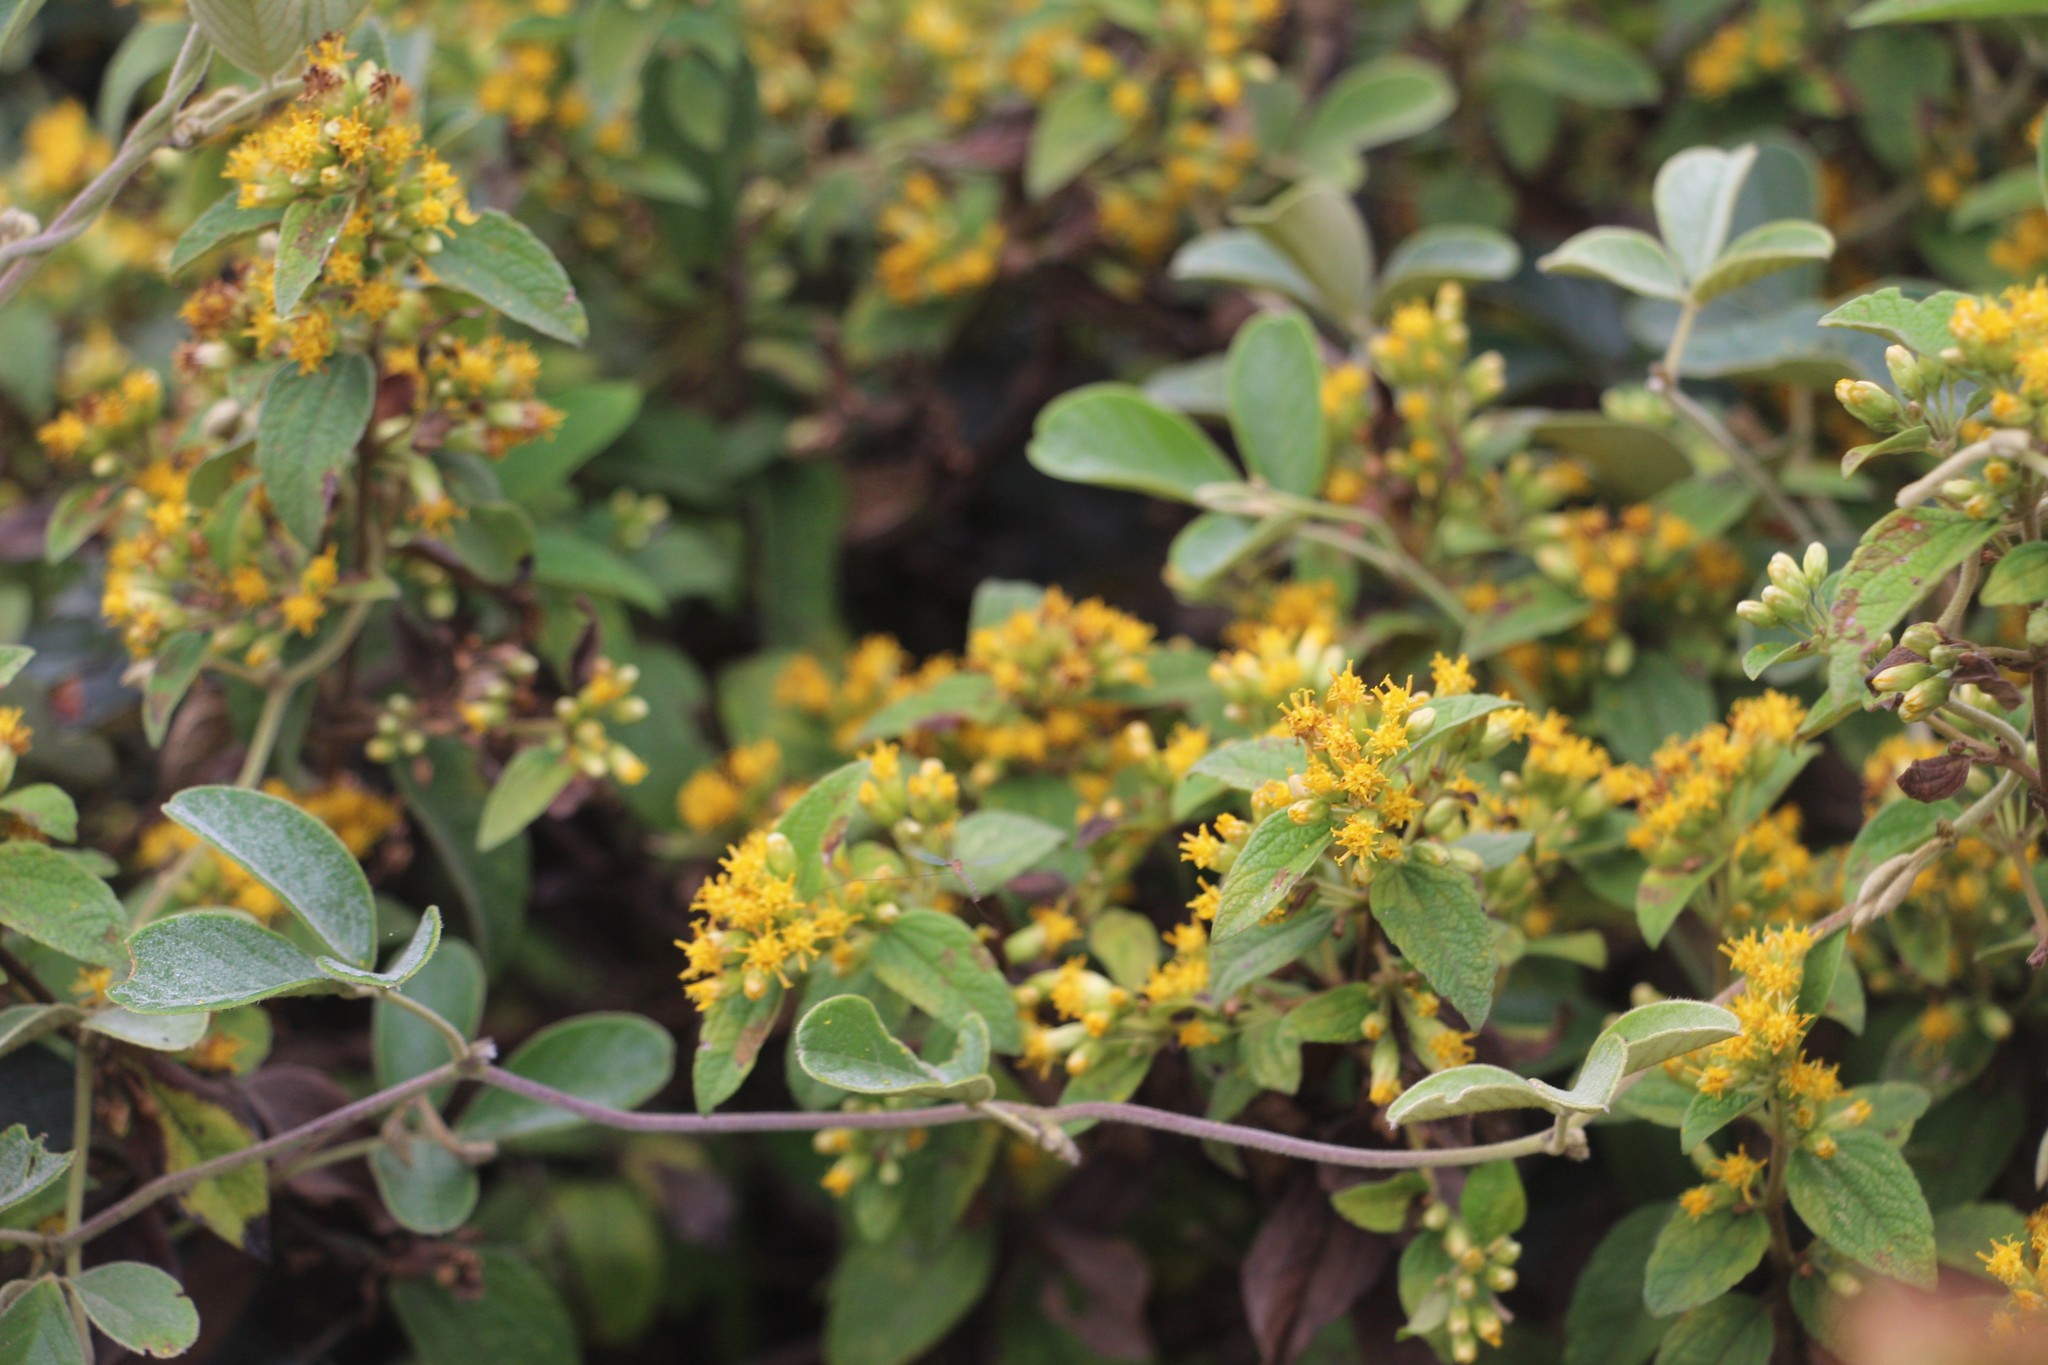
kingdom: Plantae
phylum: Tracheophyta
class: Magnoliopsida
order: Asterales
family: Asteraceae
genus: Calea
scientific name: Calea sessiliflora
